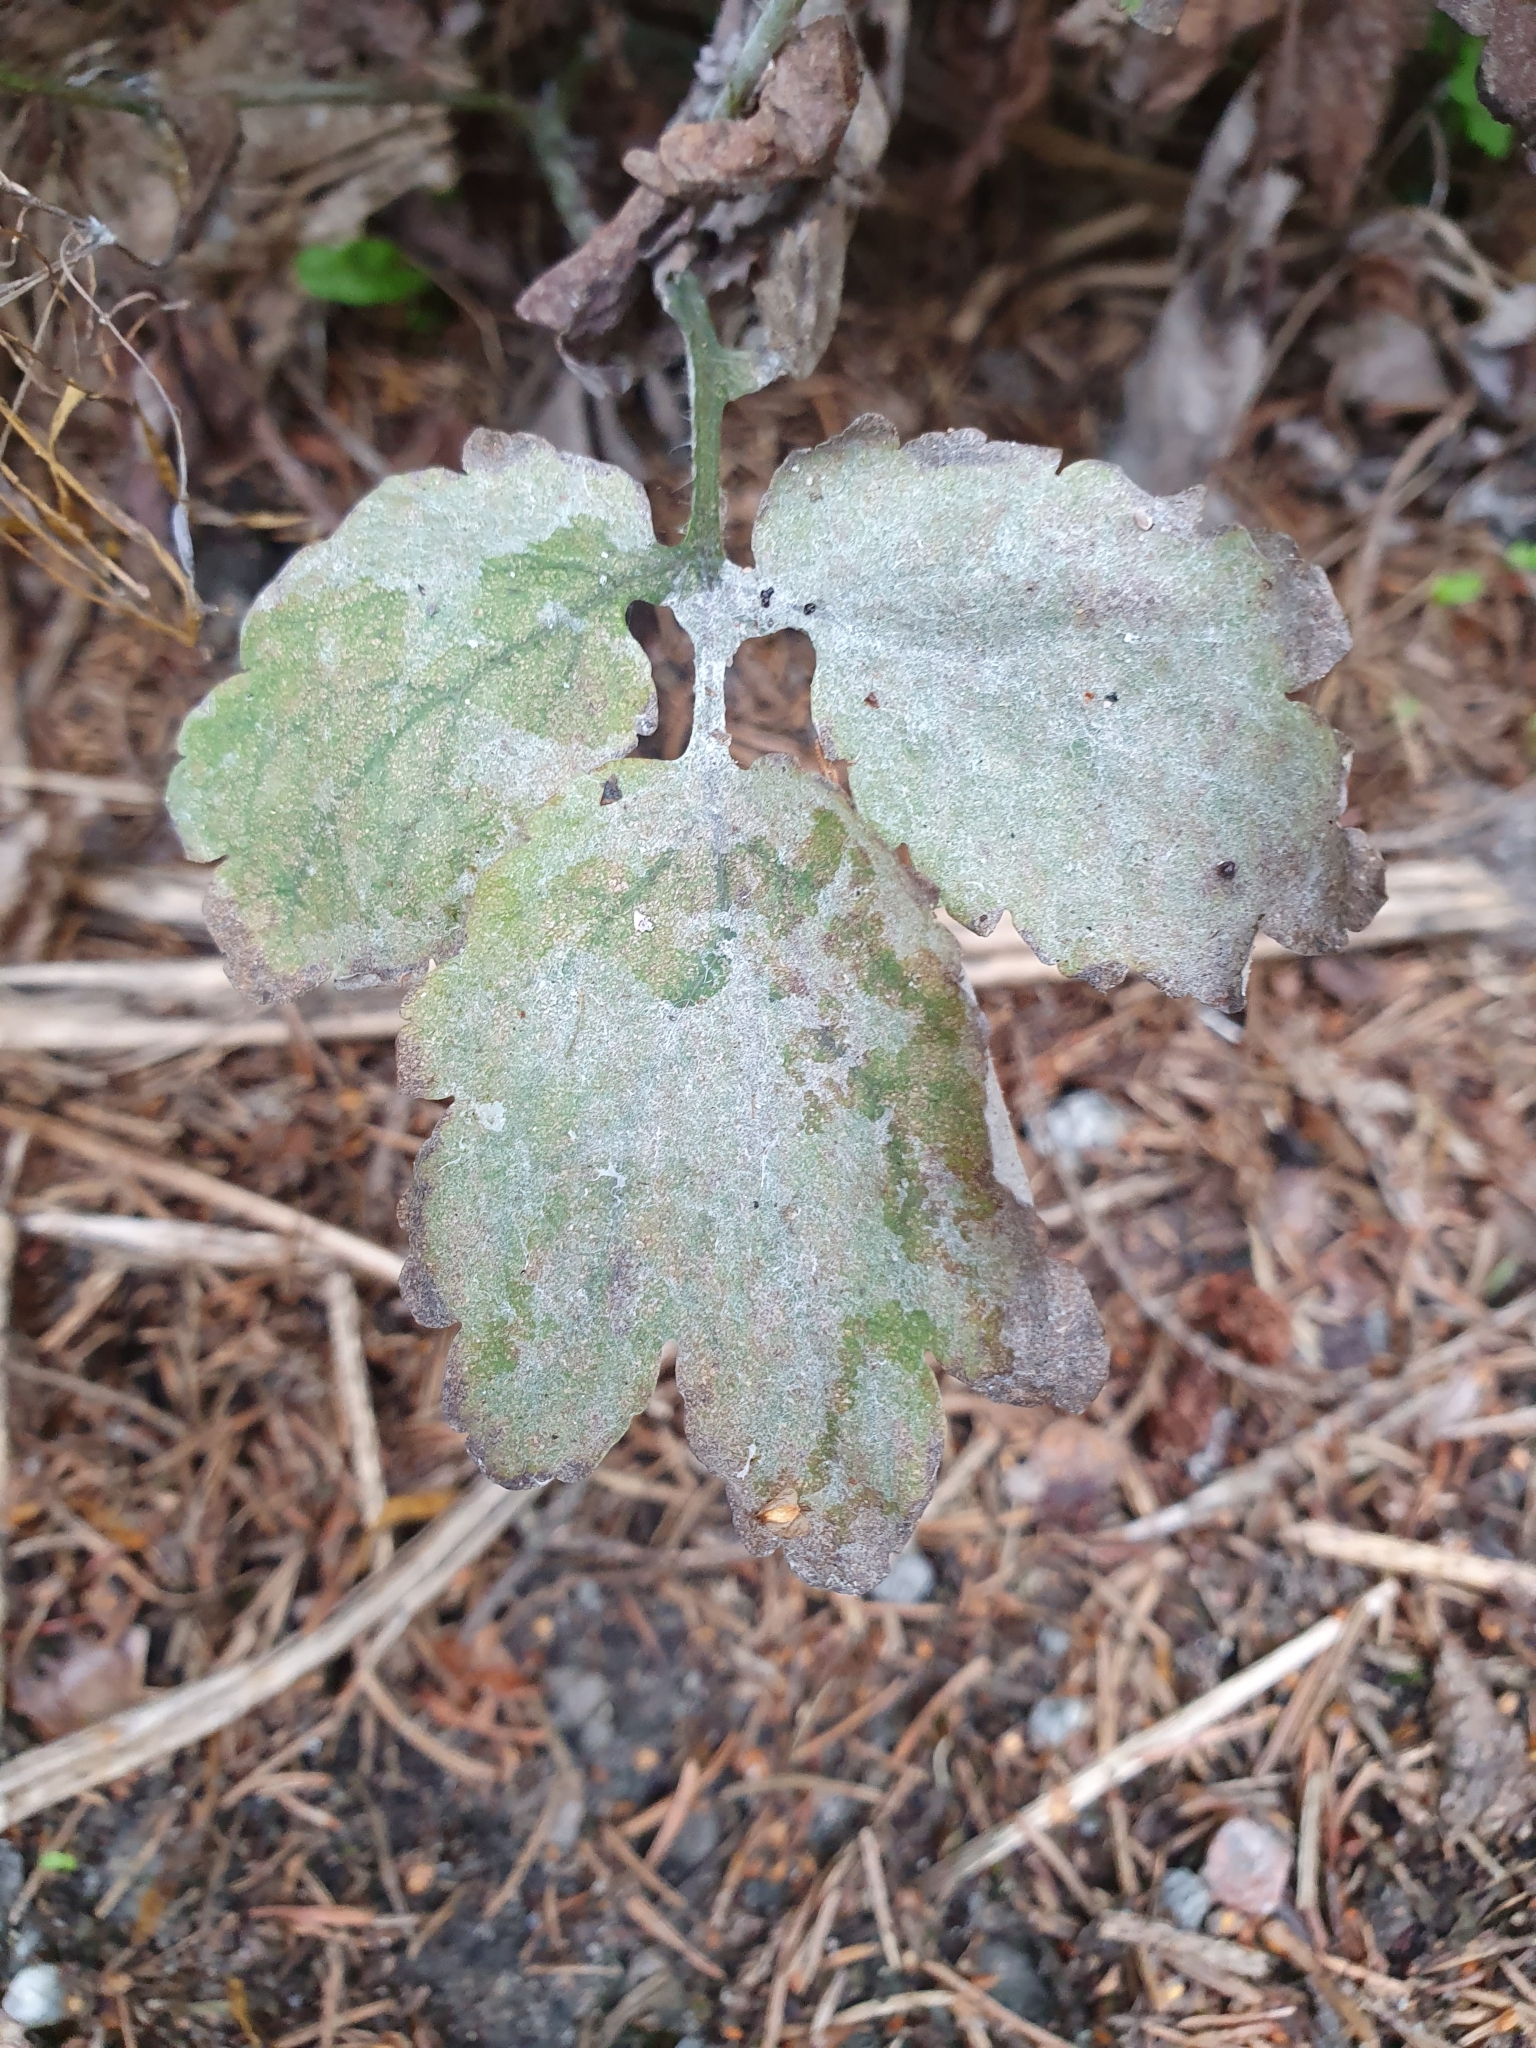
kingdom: Fungi
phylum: Ascomycota
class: Leotiomycetes
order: Helotiales
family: Erysiphaceae
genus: Erysiphe
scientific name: Erysiphe macleayae
